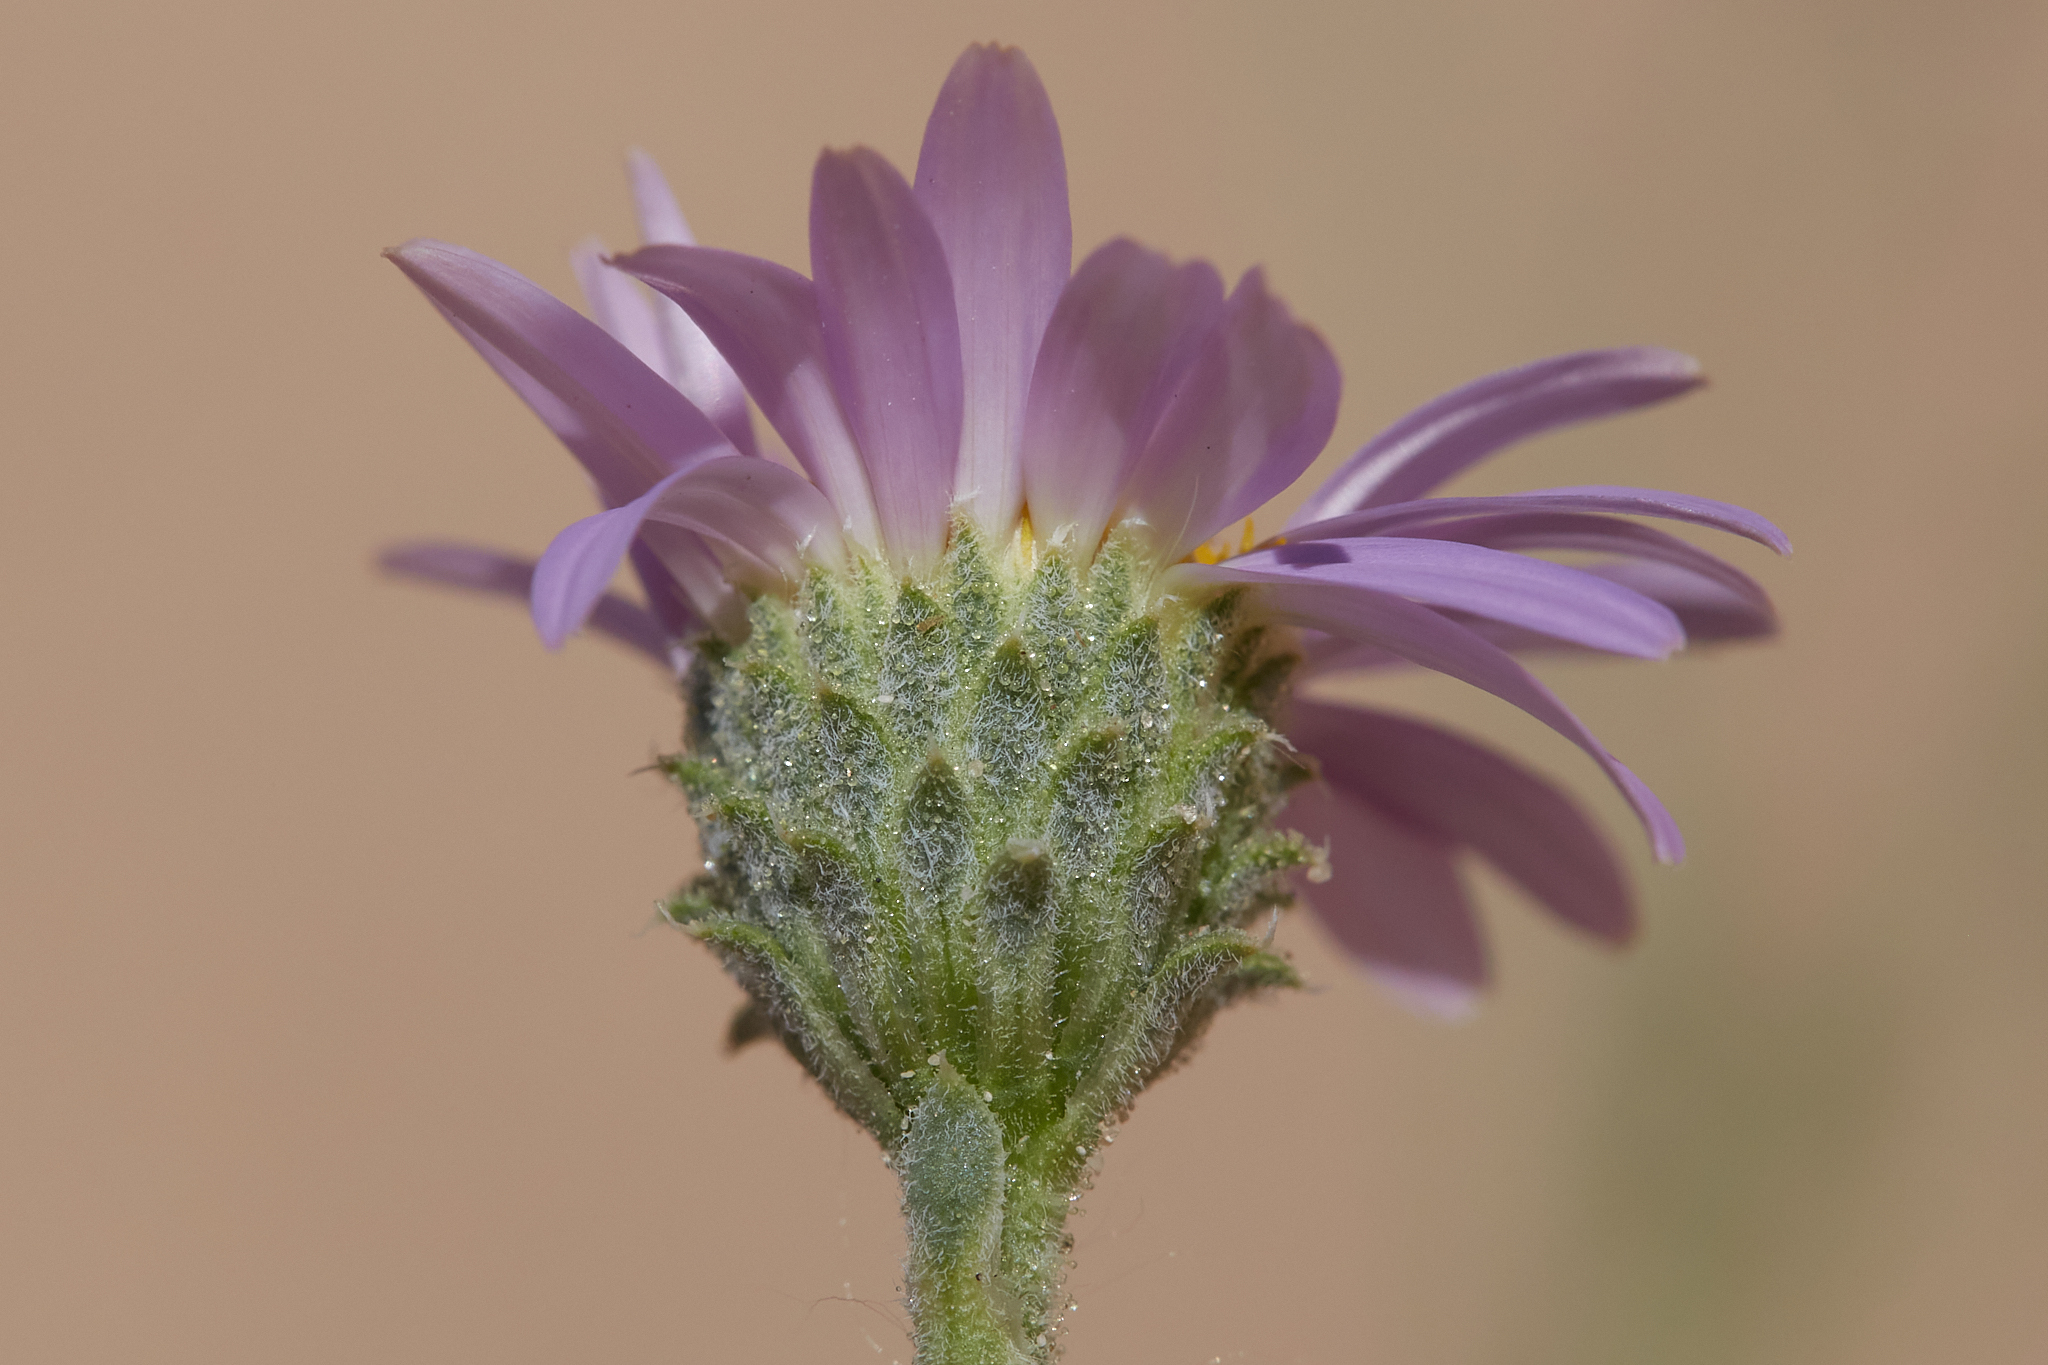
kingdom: Plantae
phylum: Tracheophyta
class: Magnoliopsida
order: Asterales
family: Asteraceae
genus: Dieteria
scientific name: Dieteria canescens
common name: Hoary-aster
